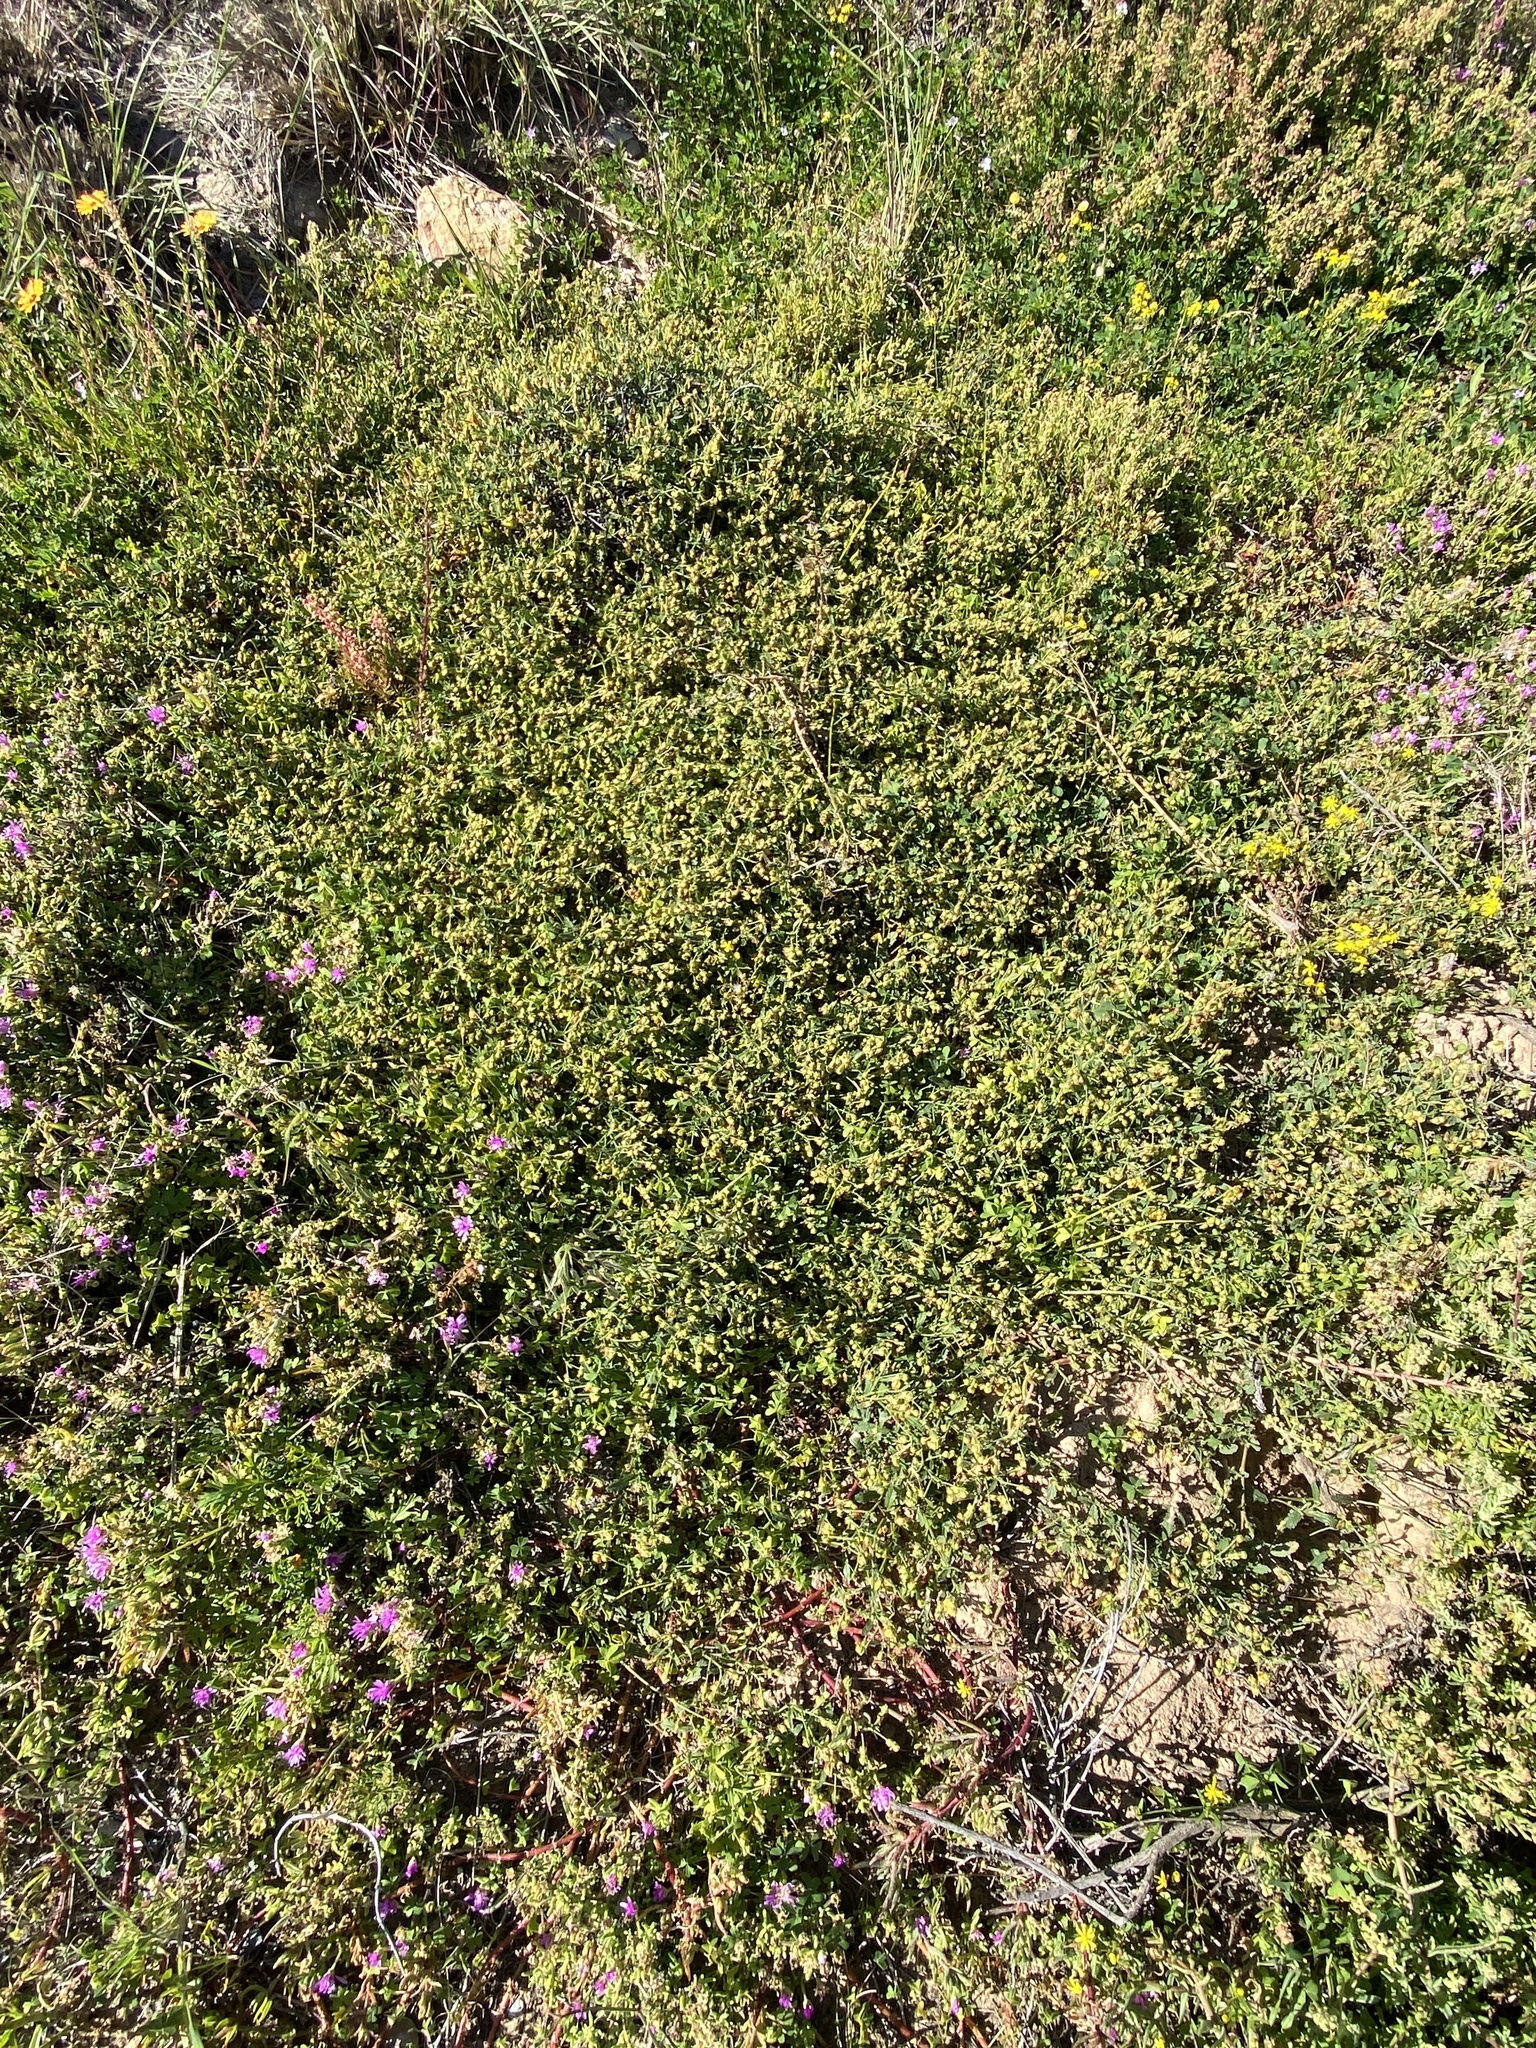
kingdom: Plantae
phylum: Tracheophyta
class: Magnoliopsida
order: Malvales
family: Malvaceae
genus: Hermannia
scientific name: Hermannia
